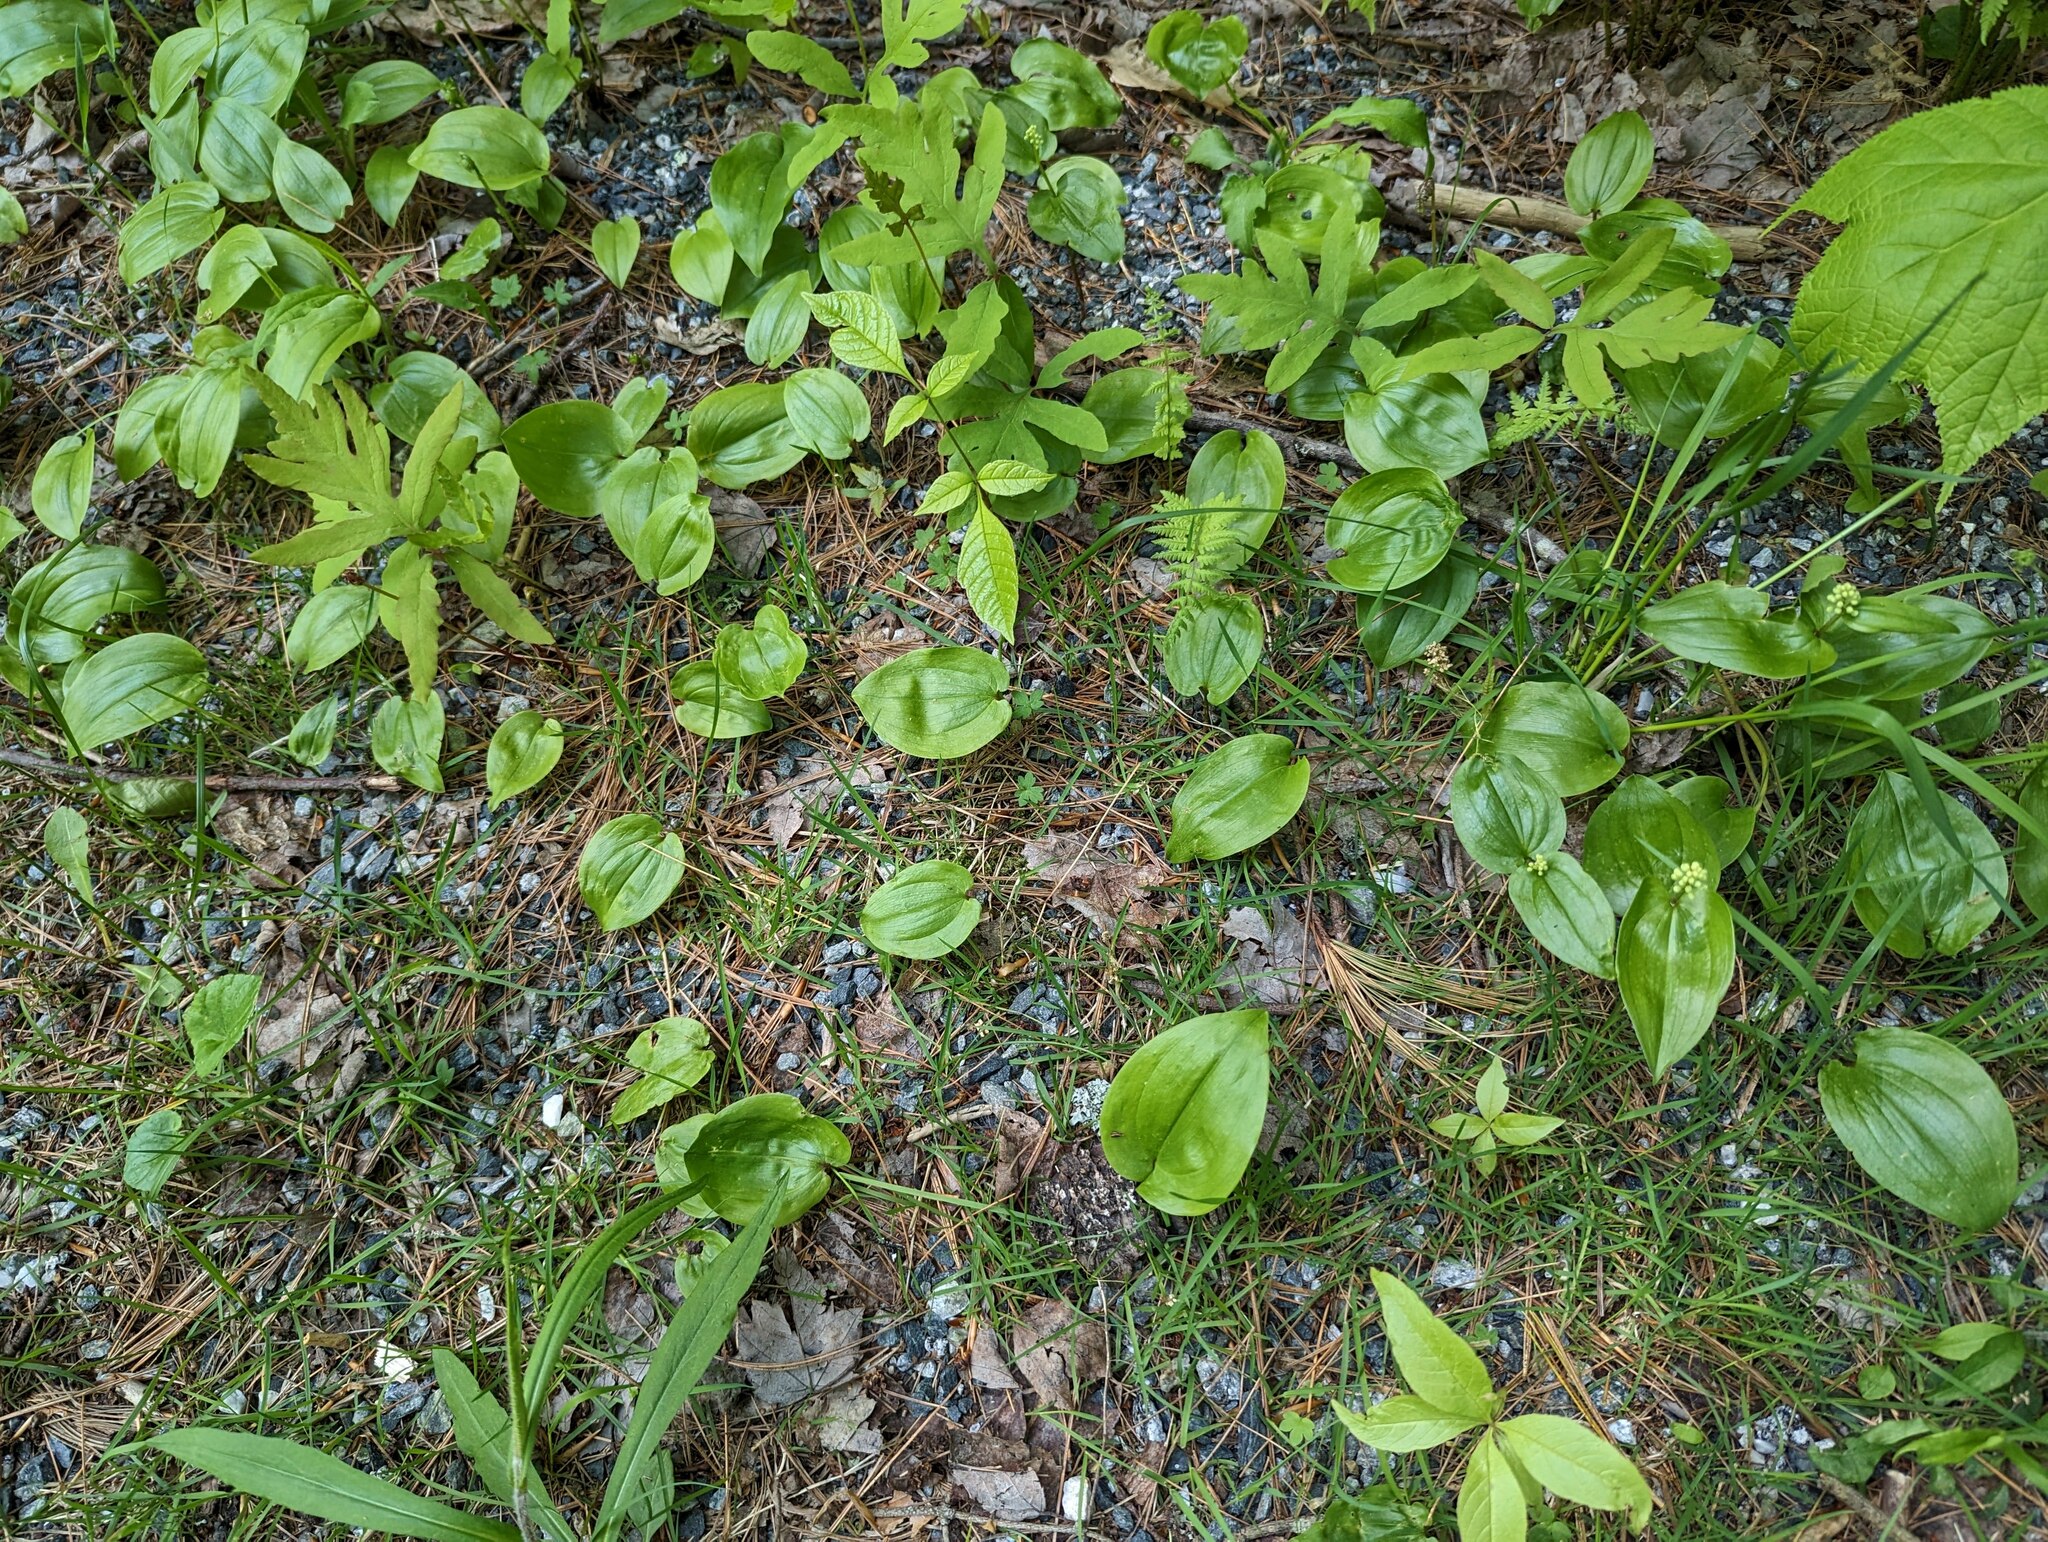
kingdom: Plantae
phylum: Tracheophyta
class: Liliopsida
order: Asparagales
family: Asparagaceae
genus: Maianthemum
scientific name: Maianthemum canadense
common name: False lily-of-the-valley
